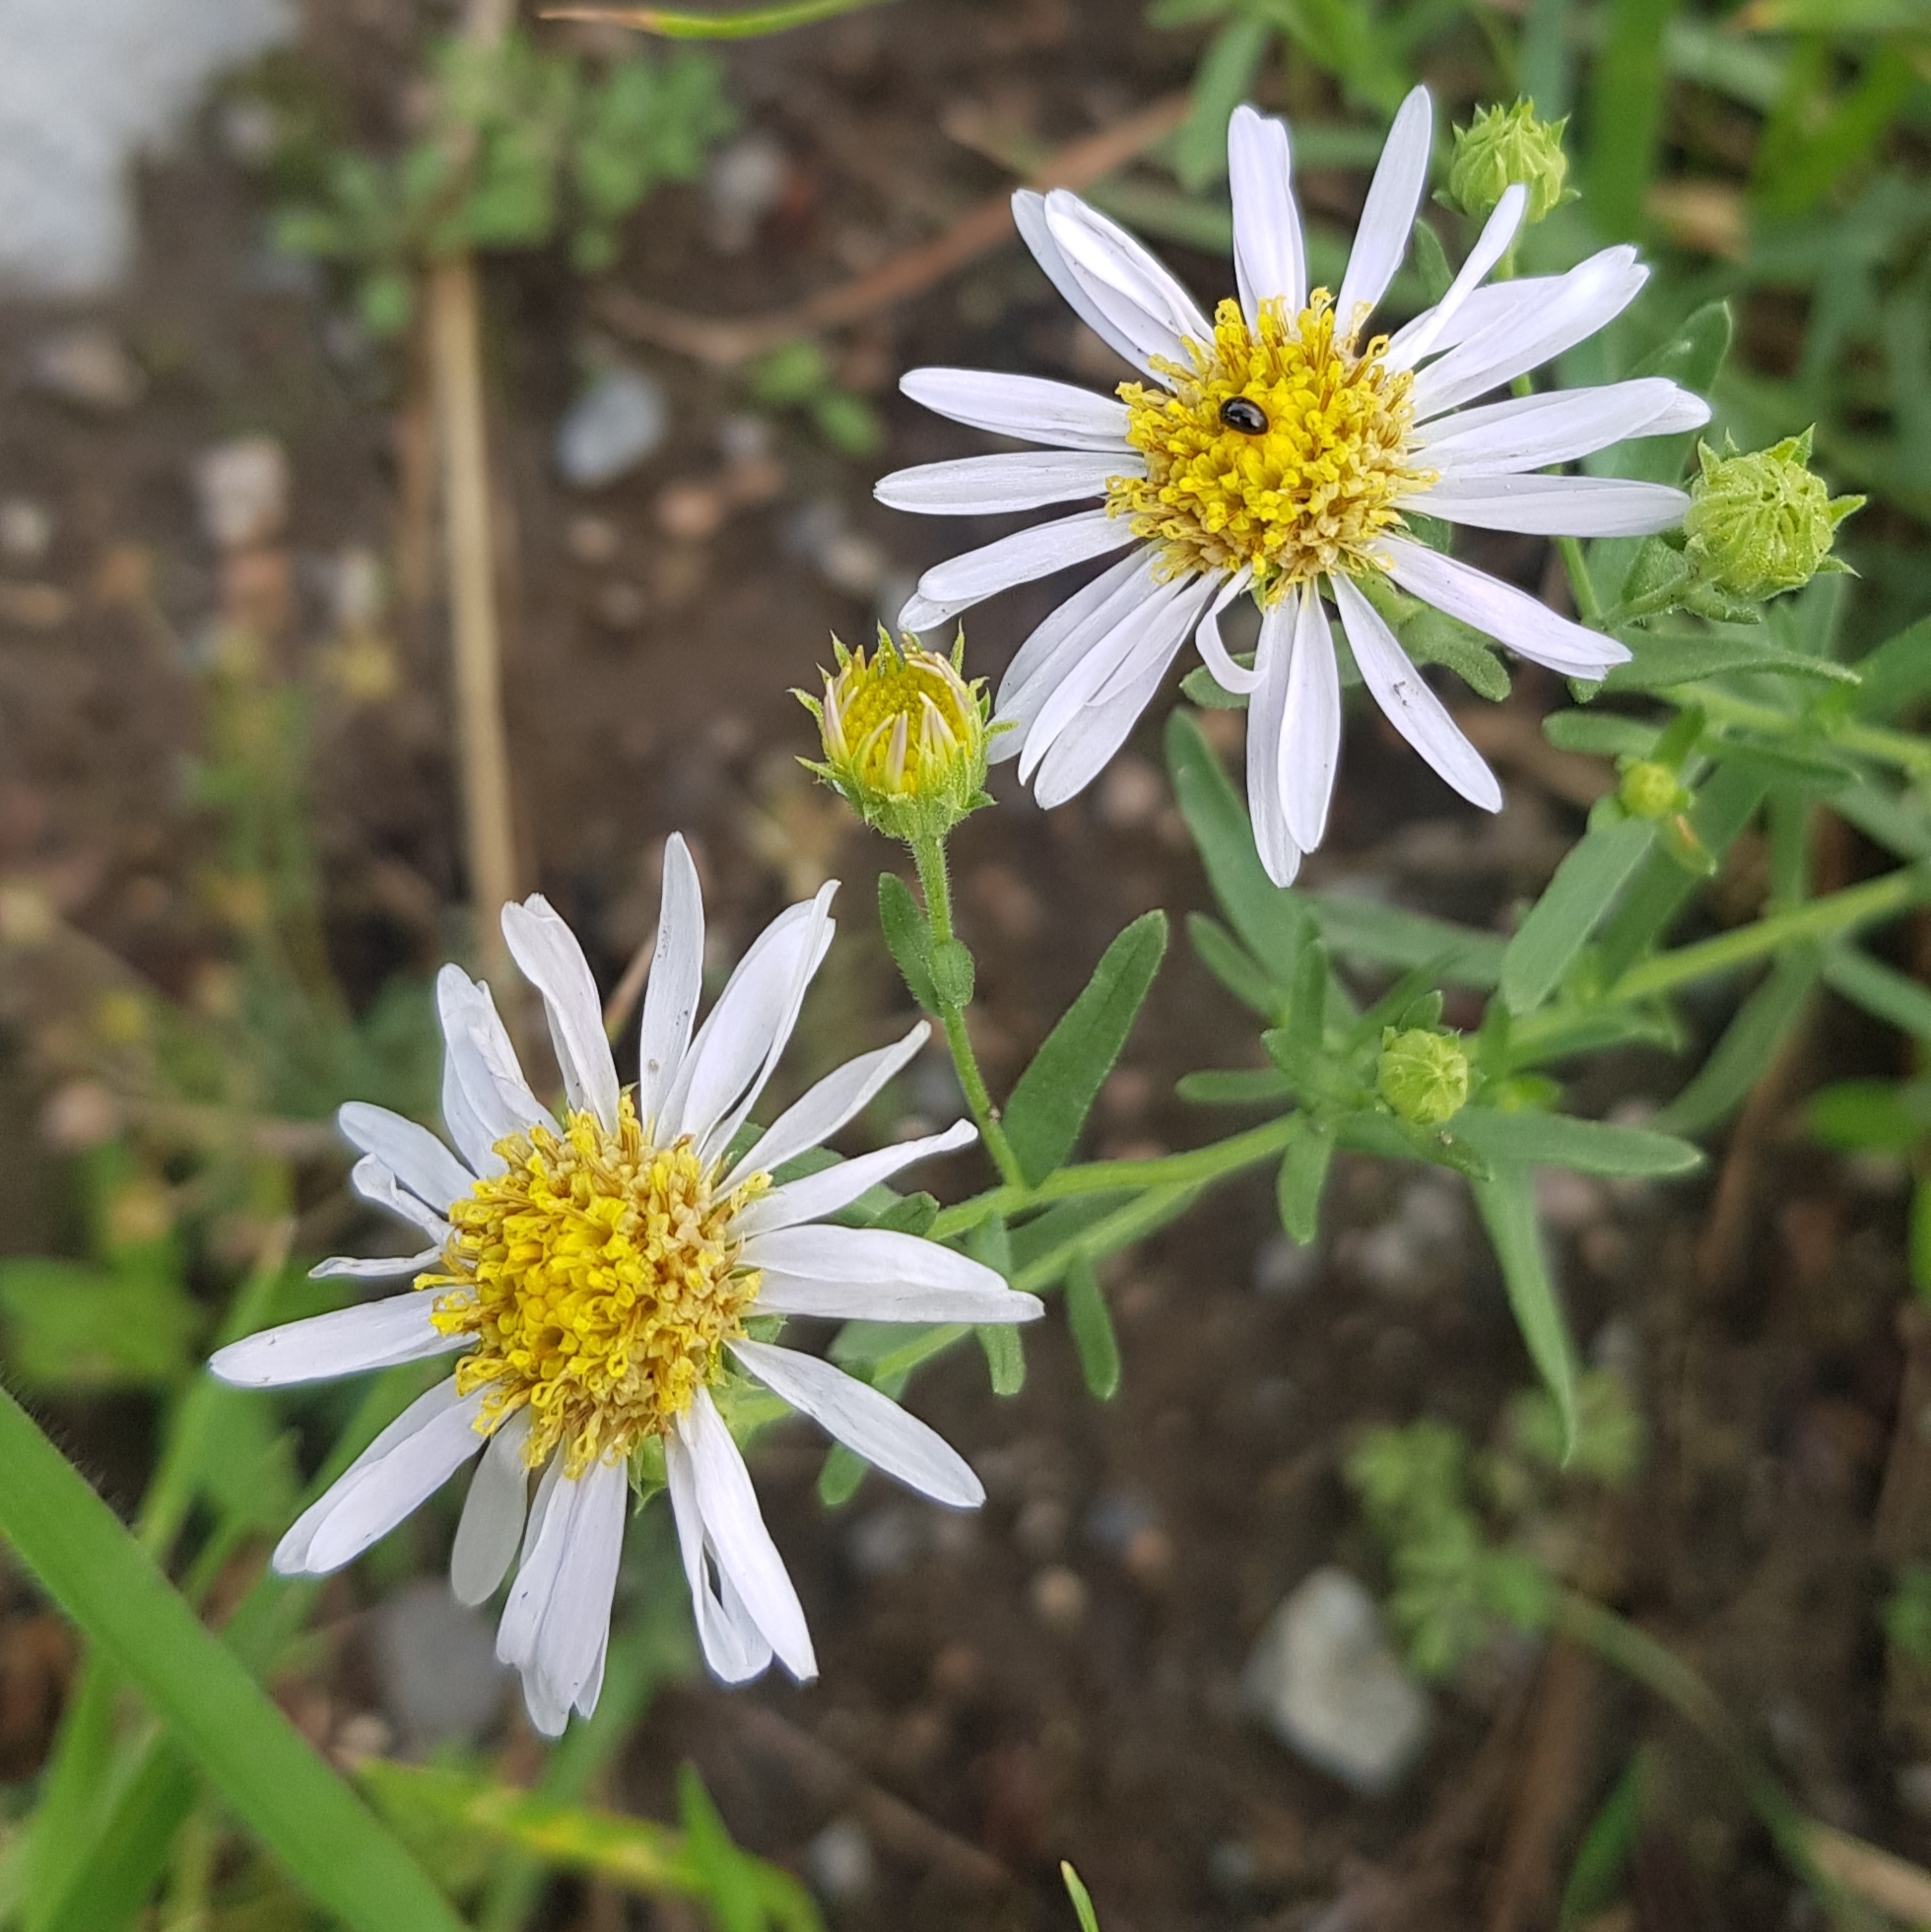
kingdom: Plantae
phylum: Tracheophyta
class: Magnoliopsida
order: Asterales
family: Asteraceae
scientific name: Asteraceae
